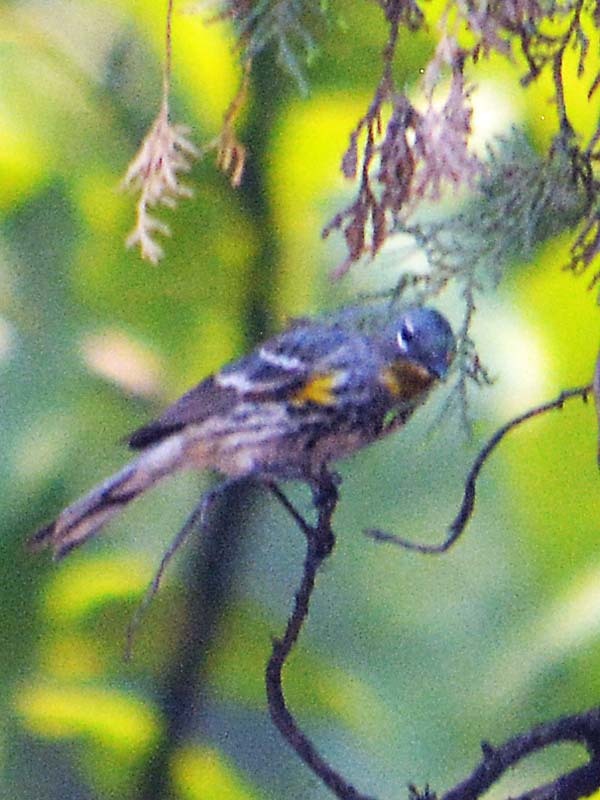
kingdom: Animalia
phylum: Chordata
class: Aves
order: Passeriformes
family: Parulidae
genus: Setophaga
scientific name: Setophaga auduboni
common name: Audubon's warbler
